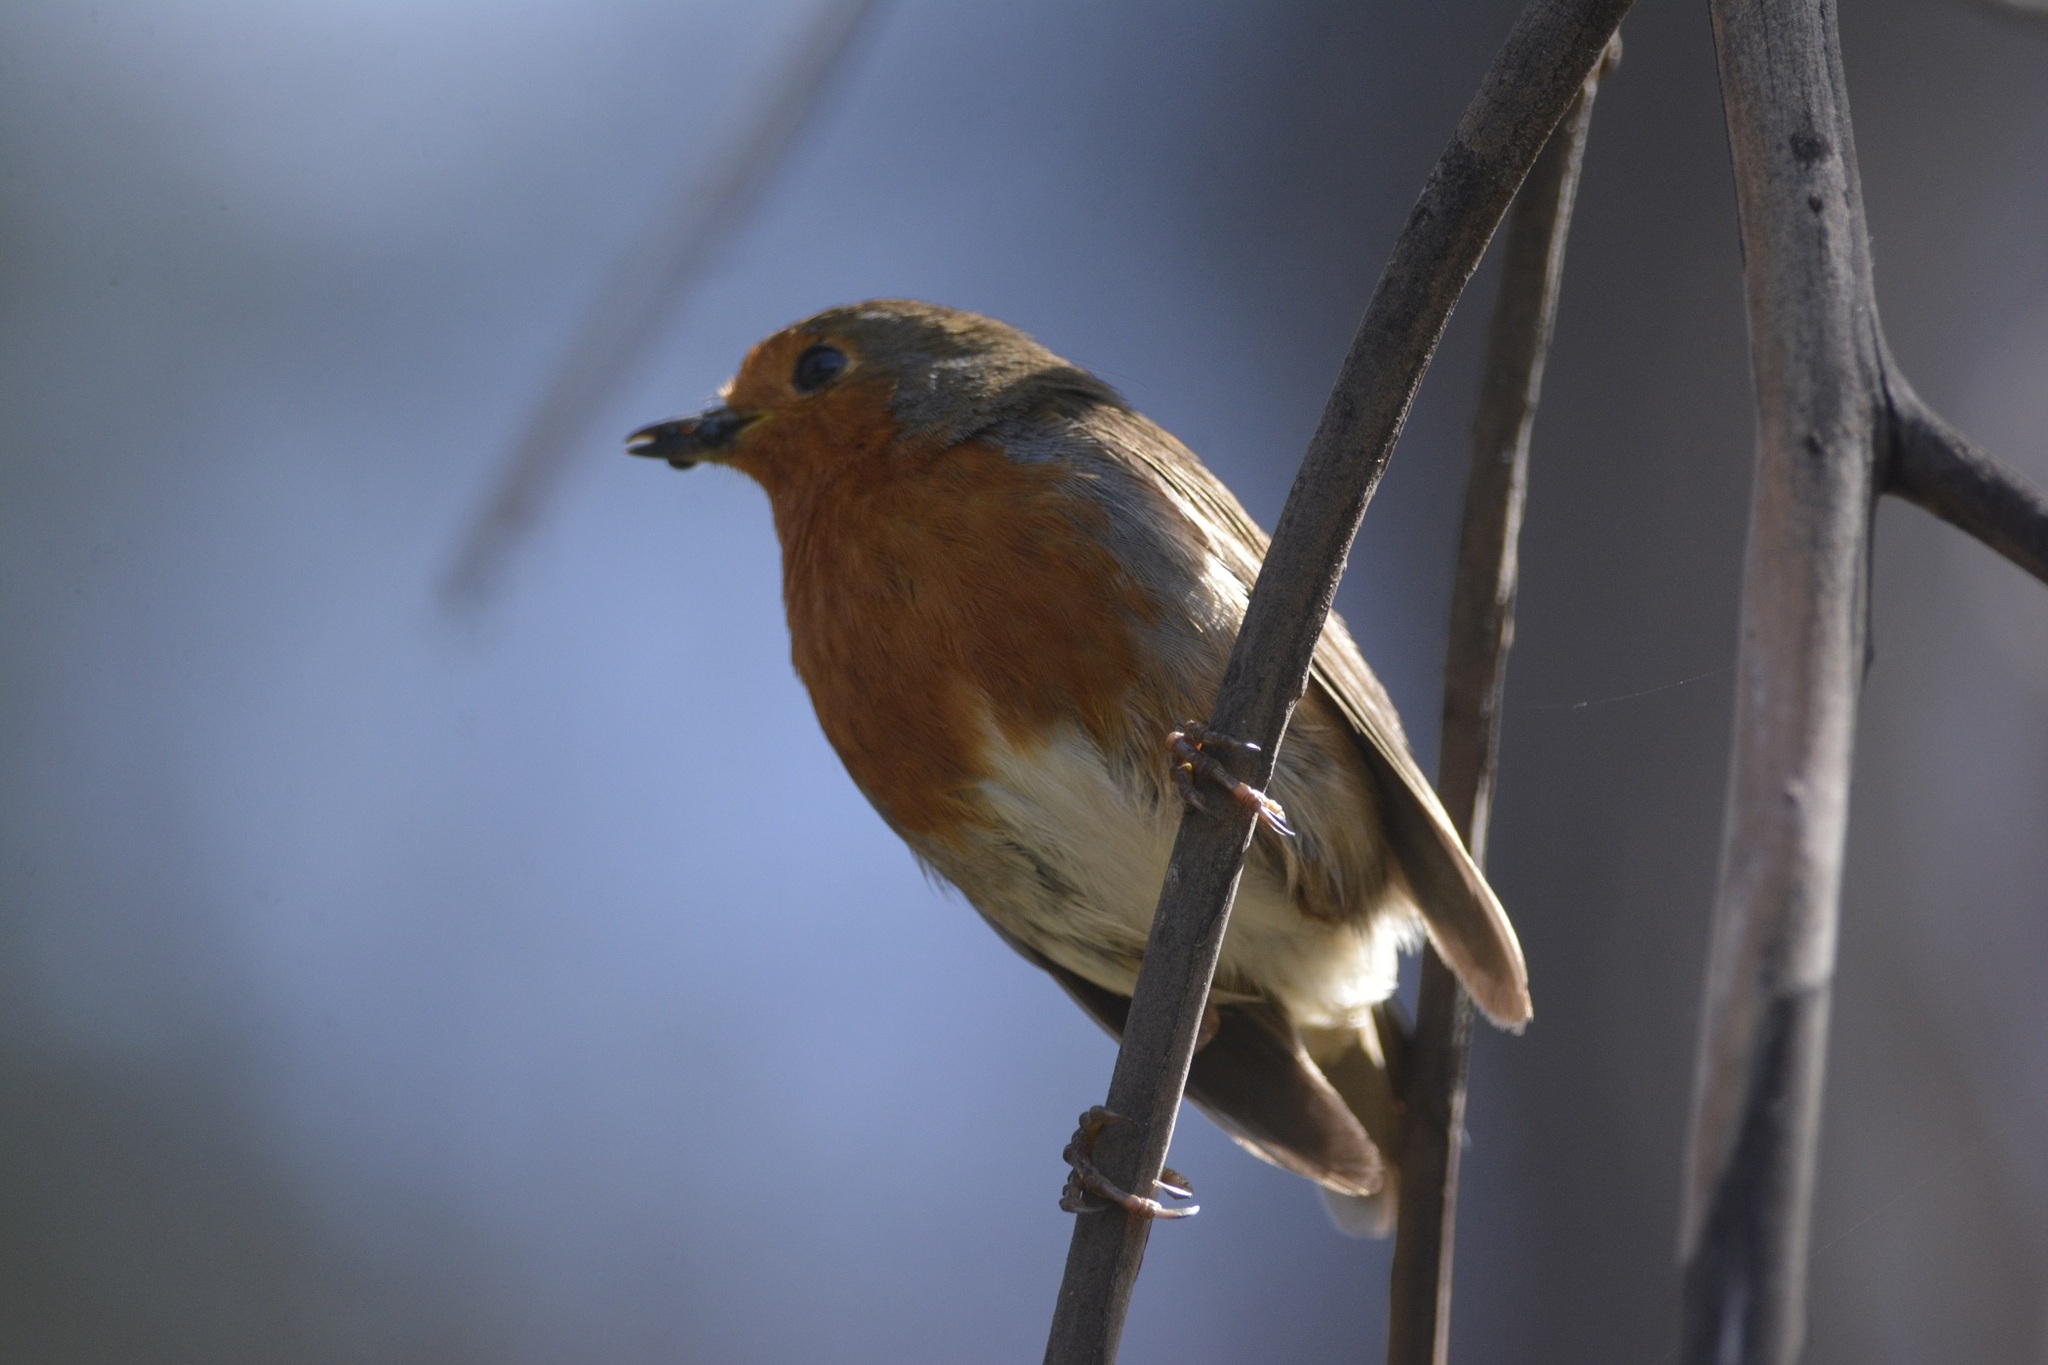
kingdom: Animalia
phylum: Chordata
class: Aves
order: Passeriformes
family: Muscicapidae
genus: Erithacus
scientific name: Erithacus rubecula
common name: European robin
